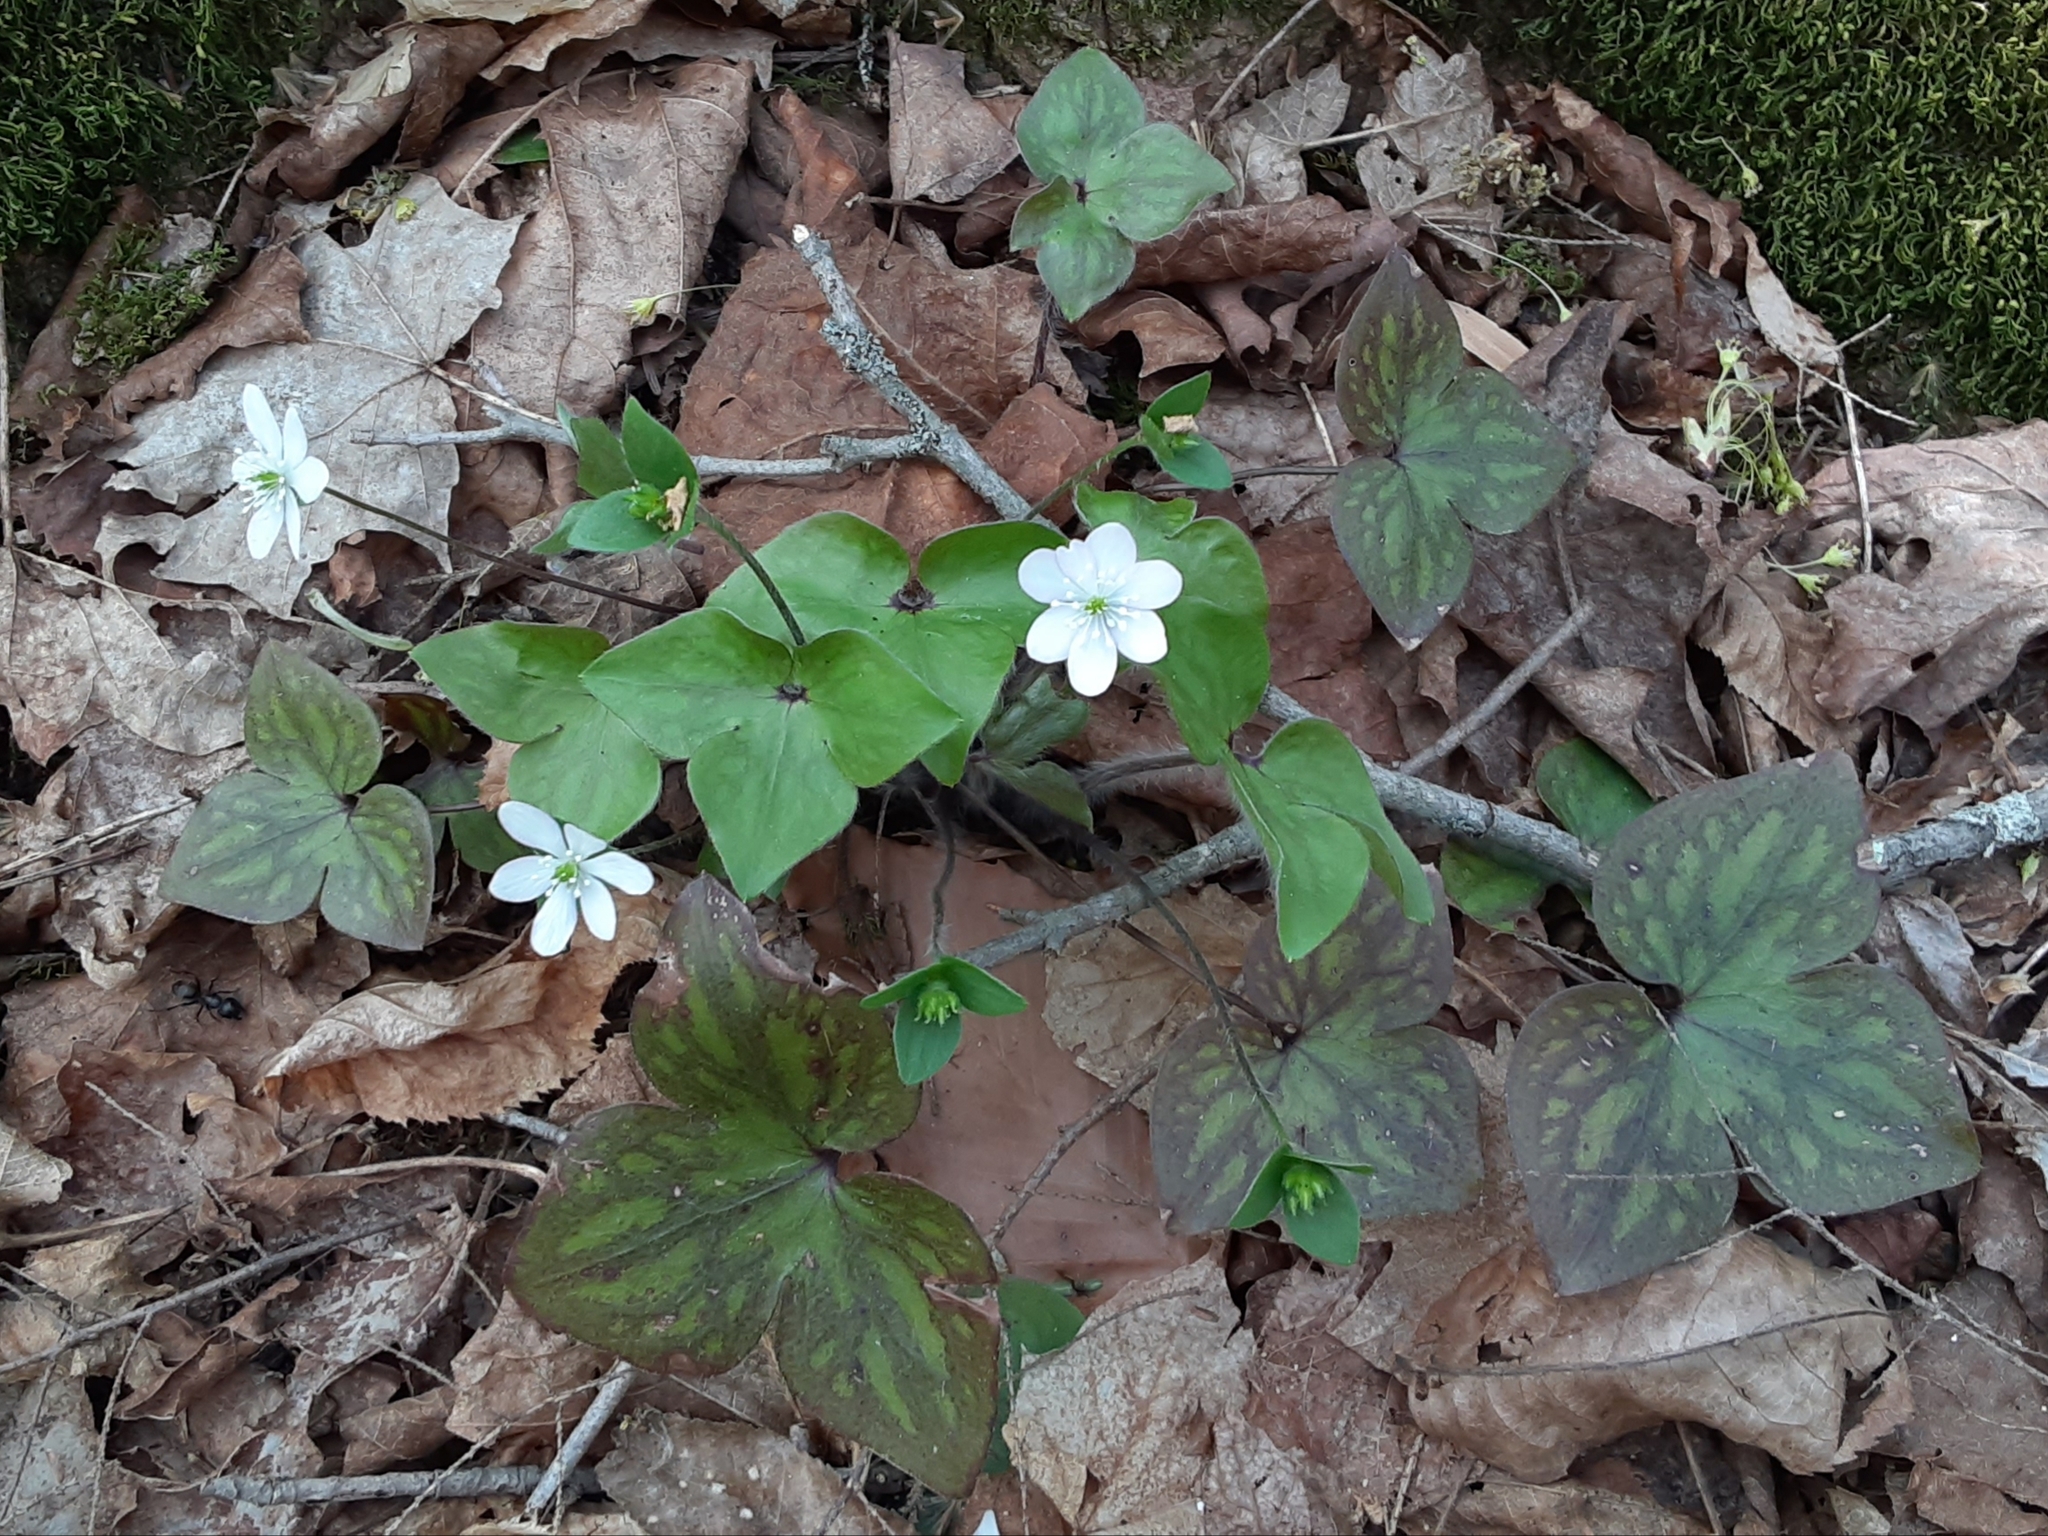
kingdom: Plantae
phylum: Tracheophyta
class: Magnoliopsida
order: Ranunculales
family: Ranunculaceae
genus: Hepatica
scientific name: Hepatica acutiloba
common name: Sharp-lobed hepatica
